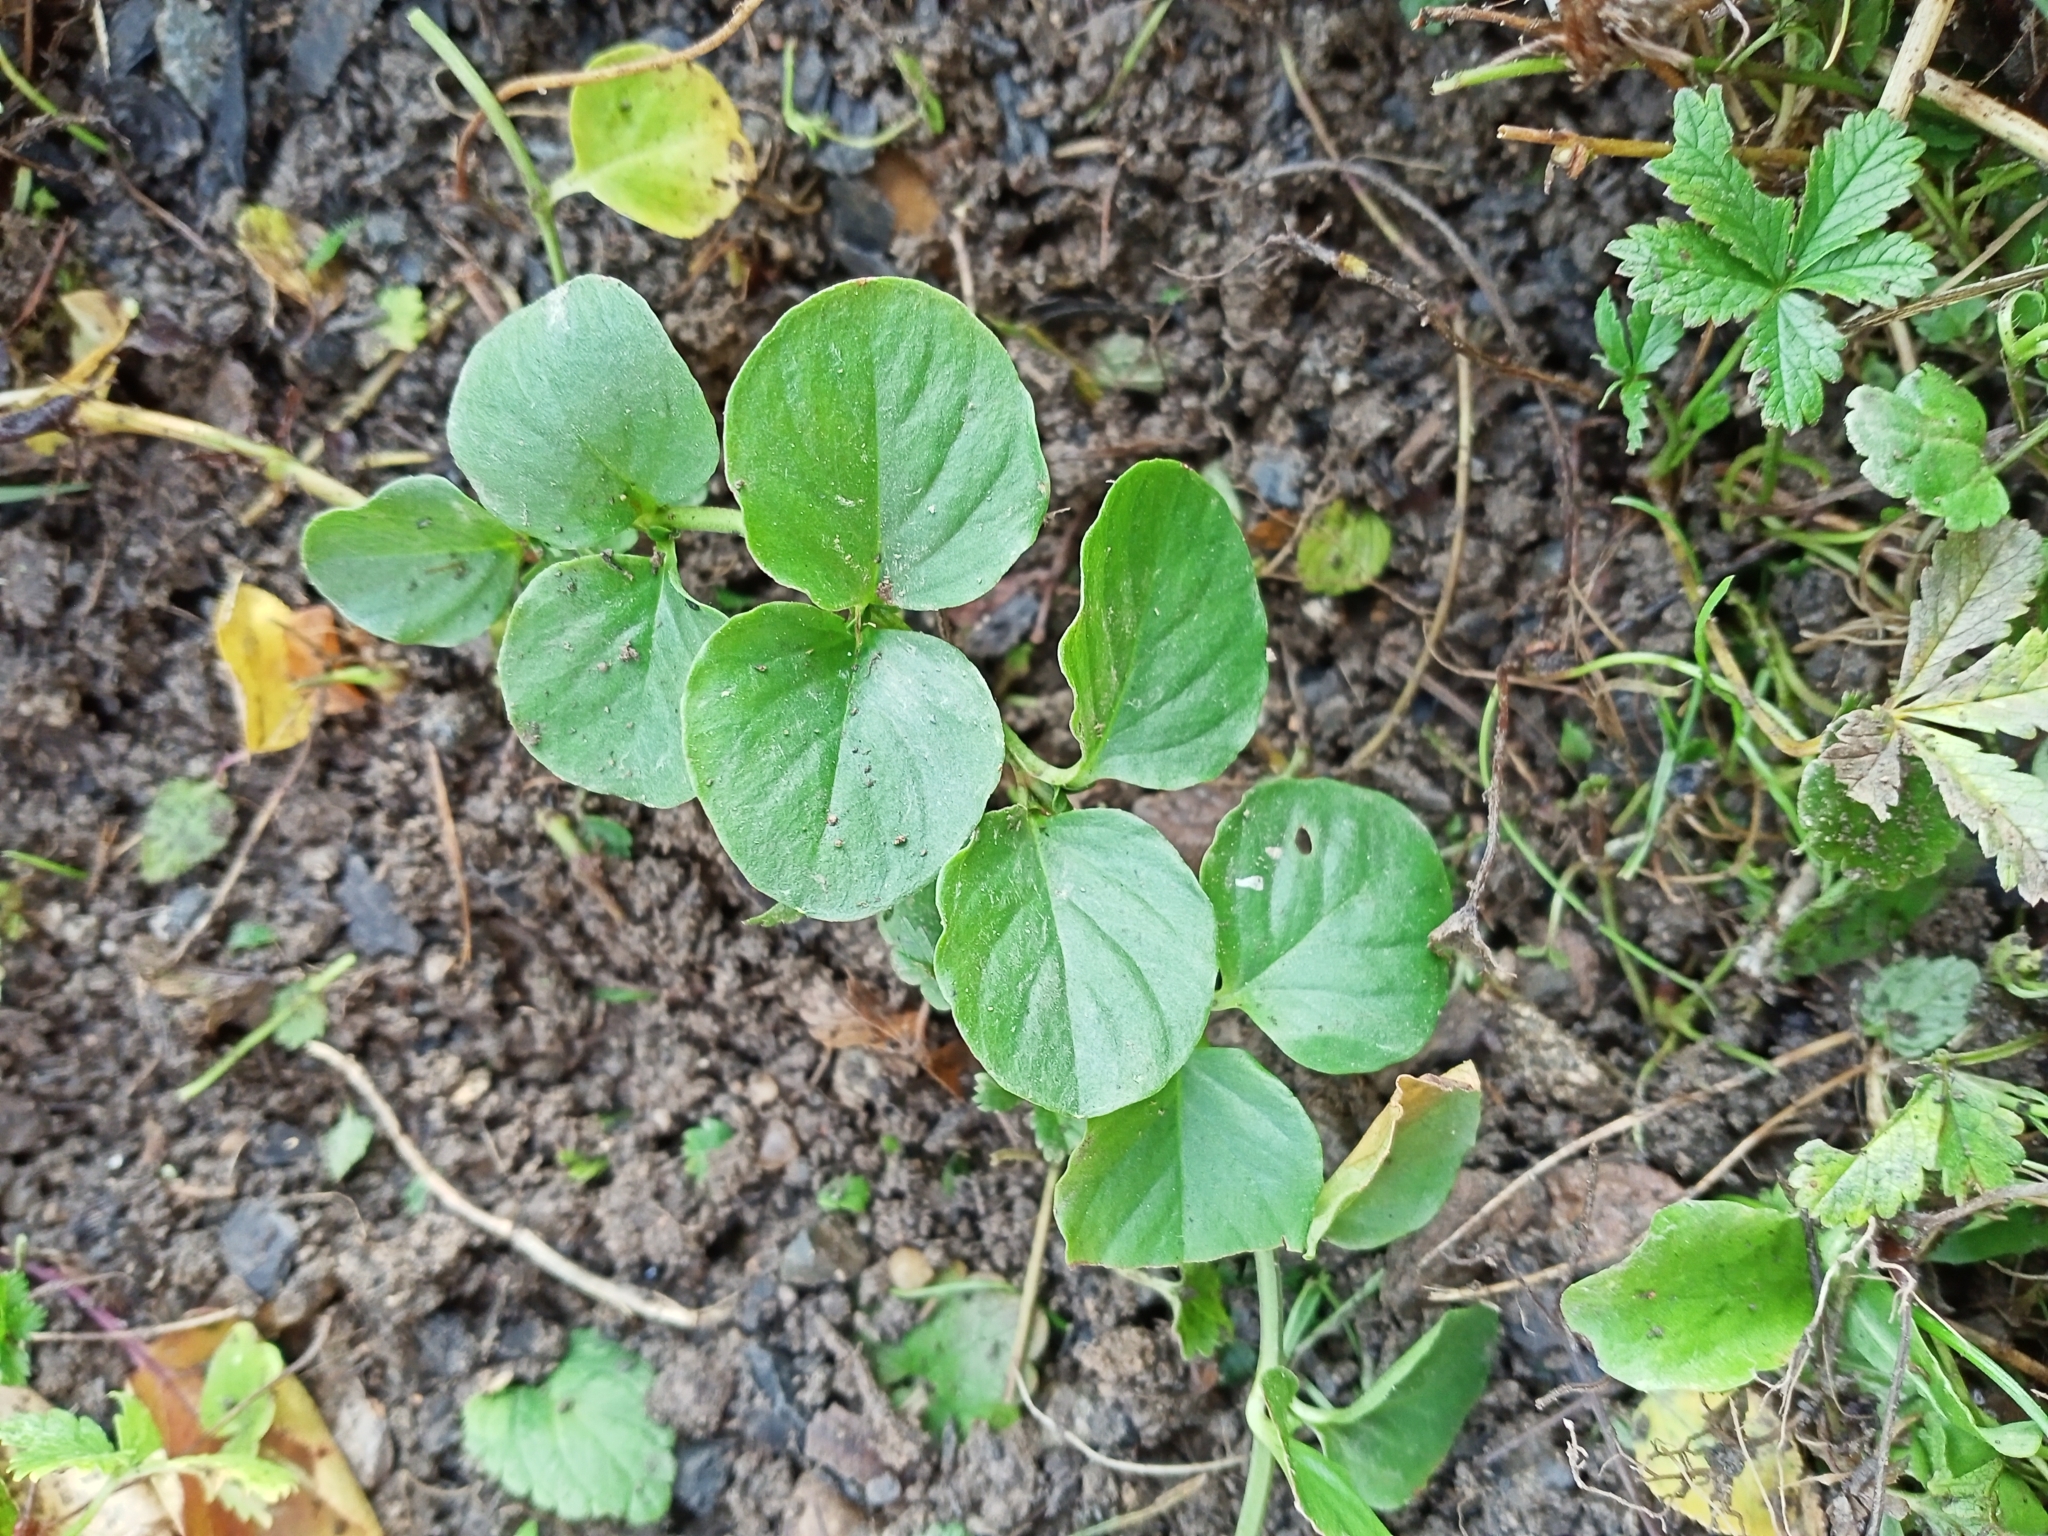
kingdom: Plantae
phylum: Tracheophyta
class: Magnoliopsida
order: Ericales
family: Primulaceae
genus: Lysimachia
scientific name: Lysimachia nummularia
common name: Moneywort
